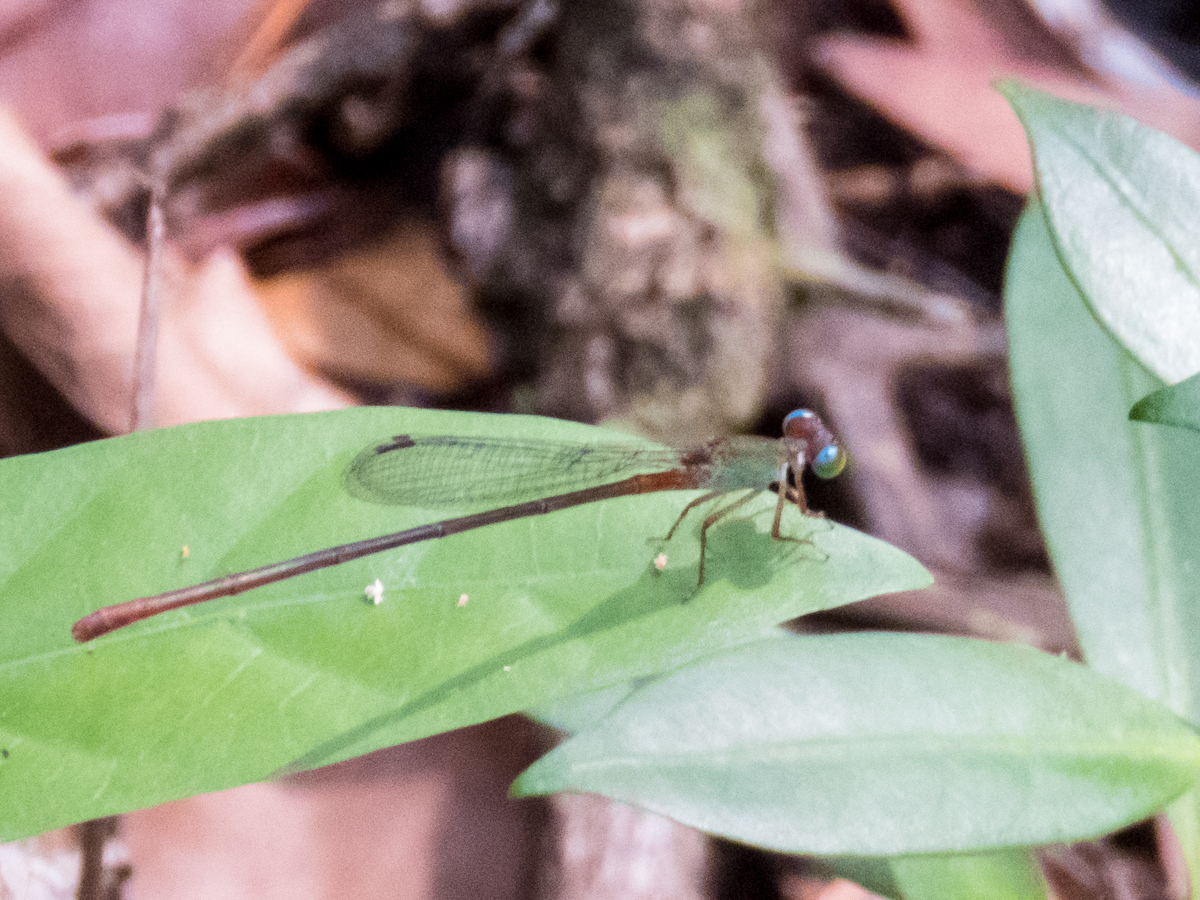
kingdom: Animalia
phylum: Arthropoda
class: Insecta
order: Odonata
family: Coenagrionidae
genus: Ceriagrion
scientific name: Ceriagrion cerinorubellum
